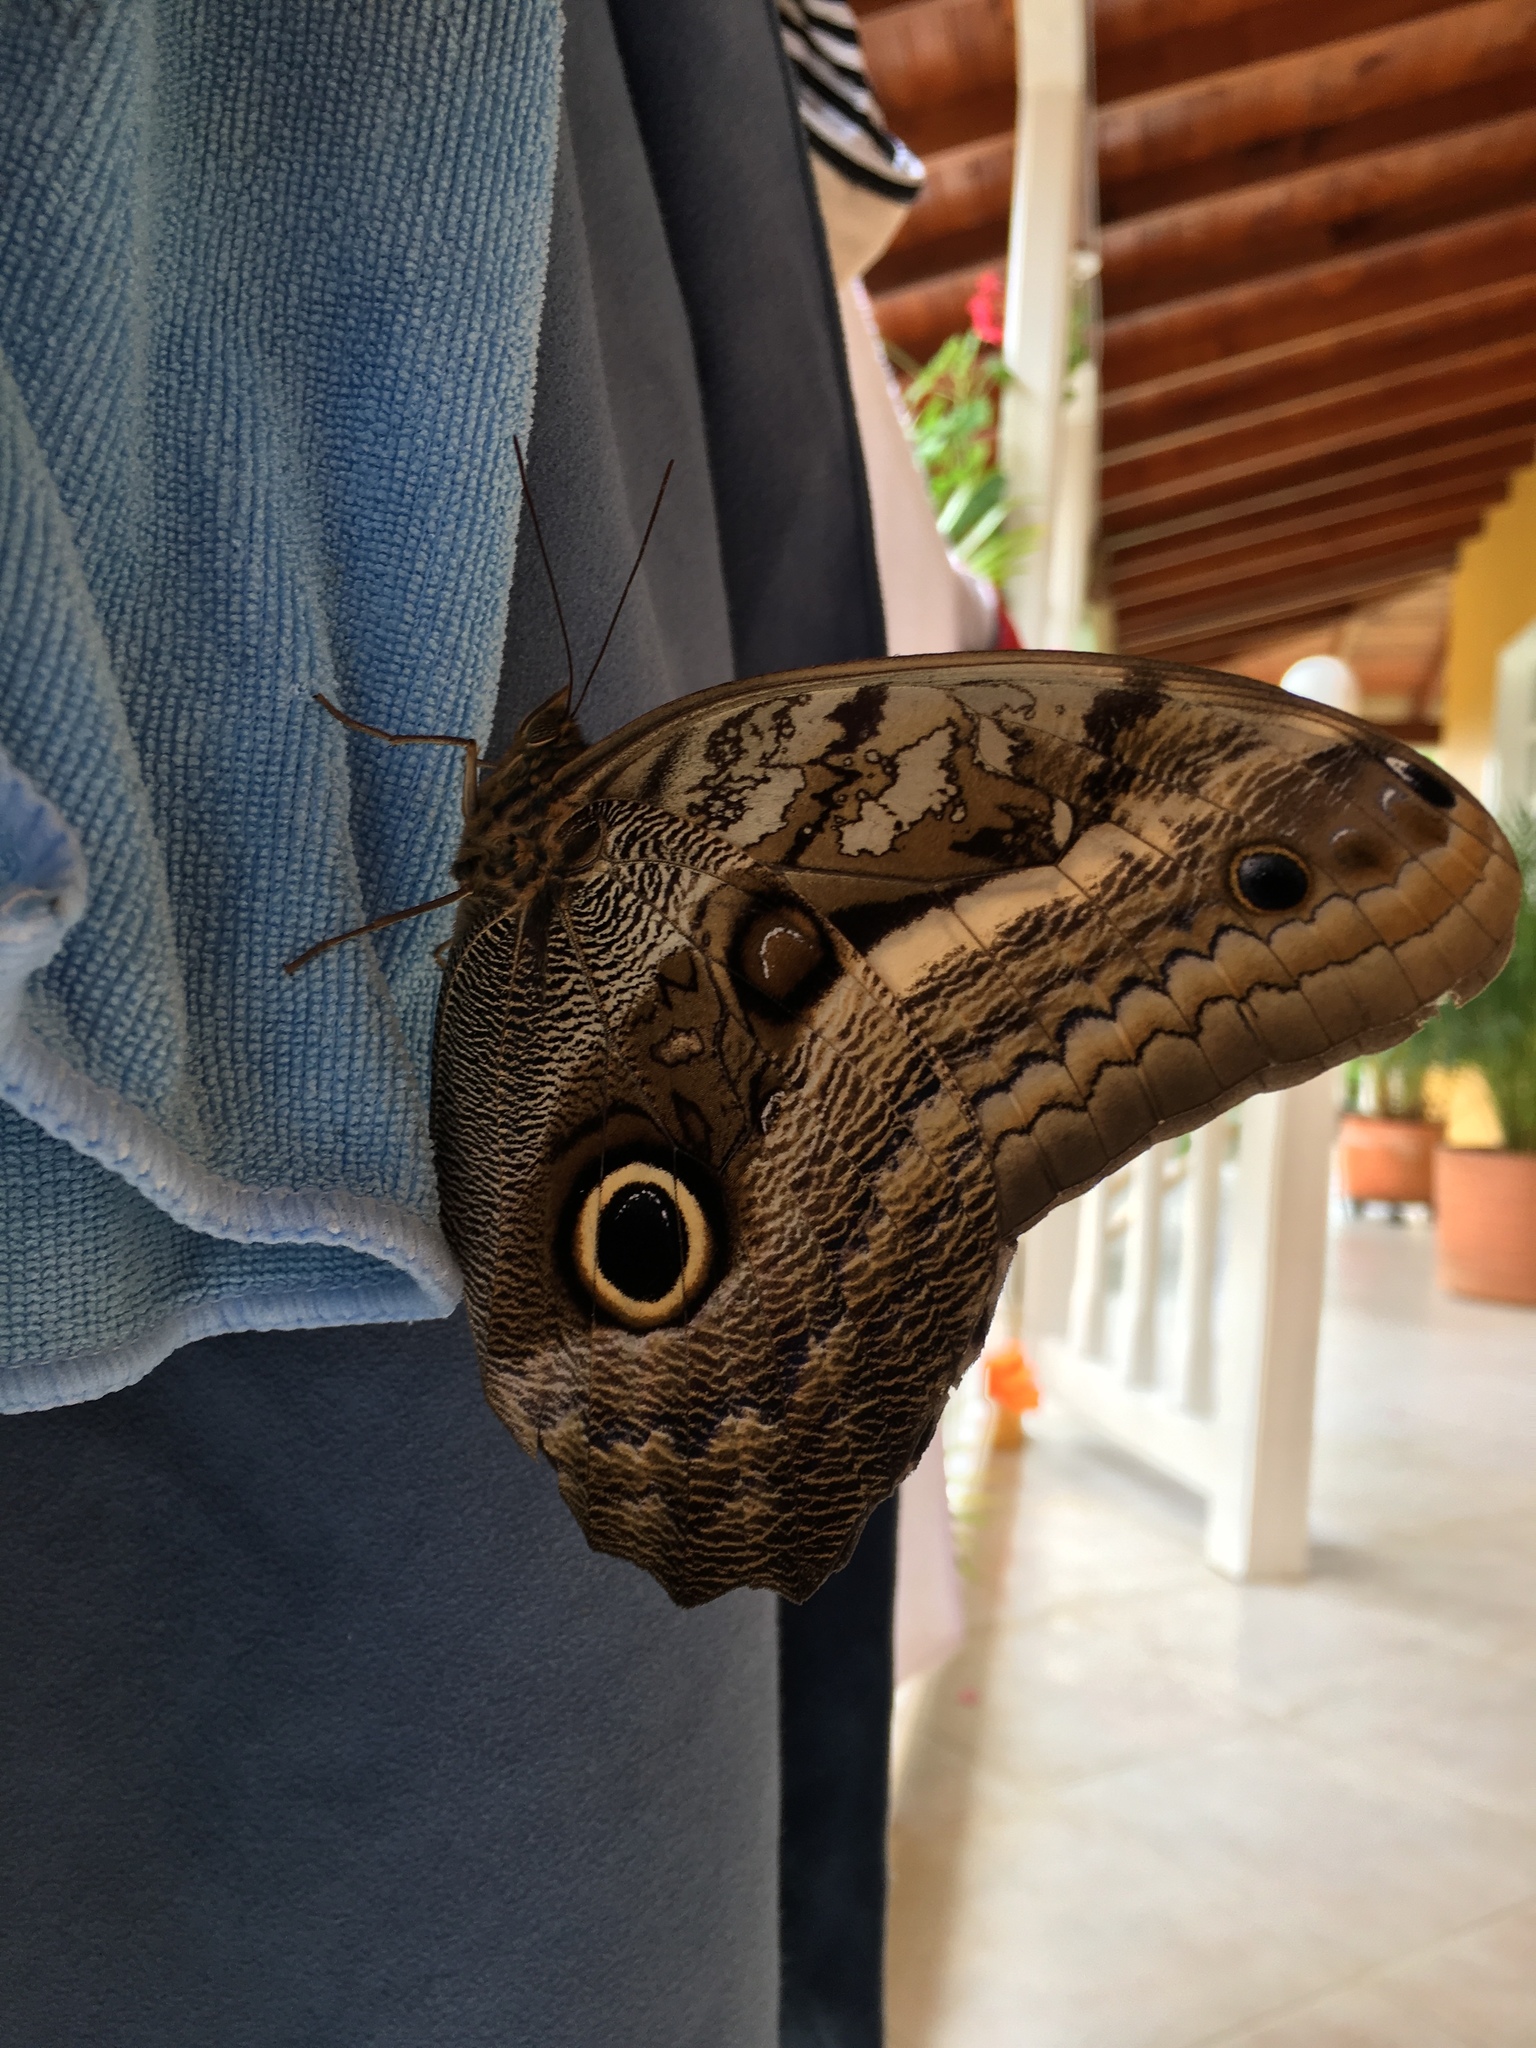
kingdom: Animalia
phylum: Arthropoda
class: Insecta
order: Lepidoptera
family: Nymphalidae
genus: Caligo
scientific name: Caligo oileus
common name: Oileus owl-butterfly
